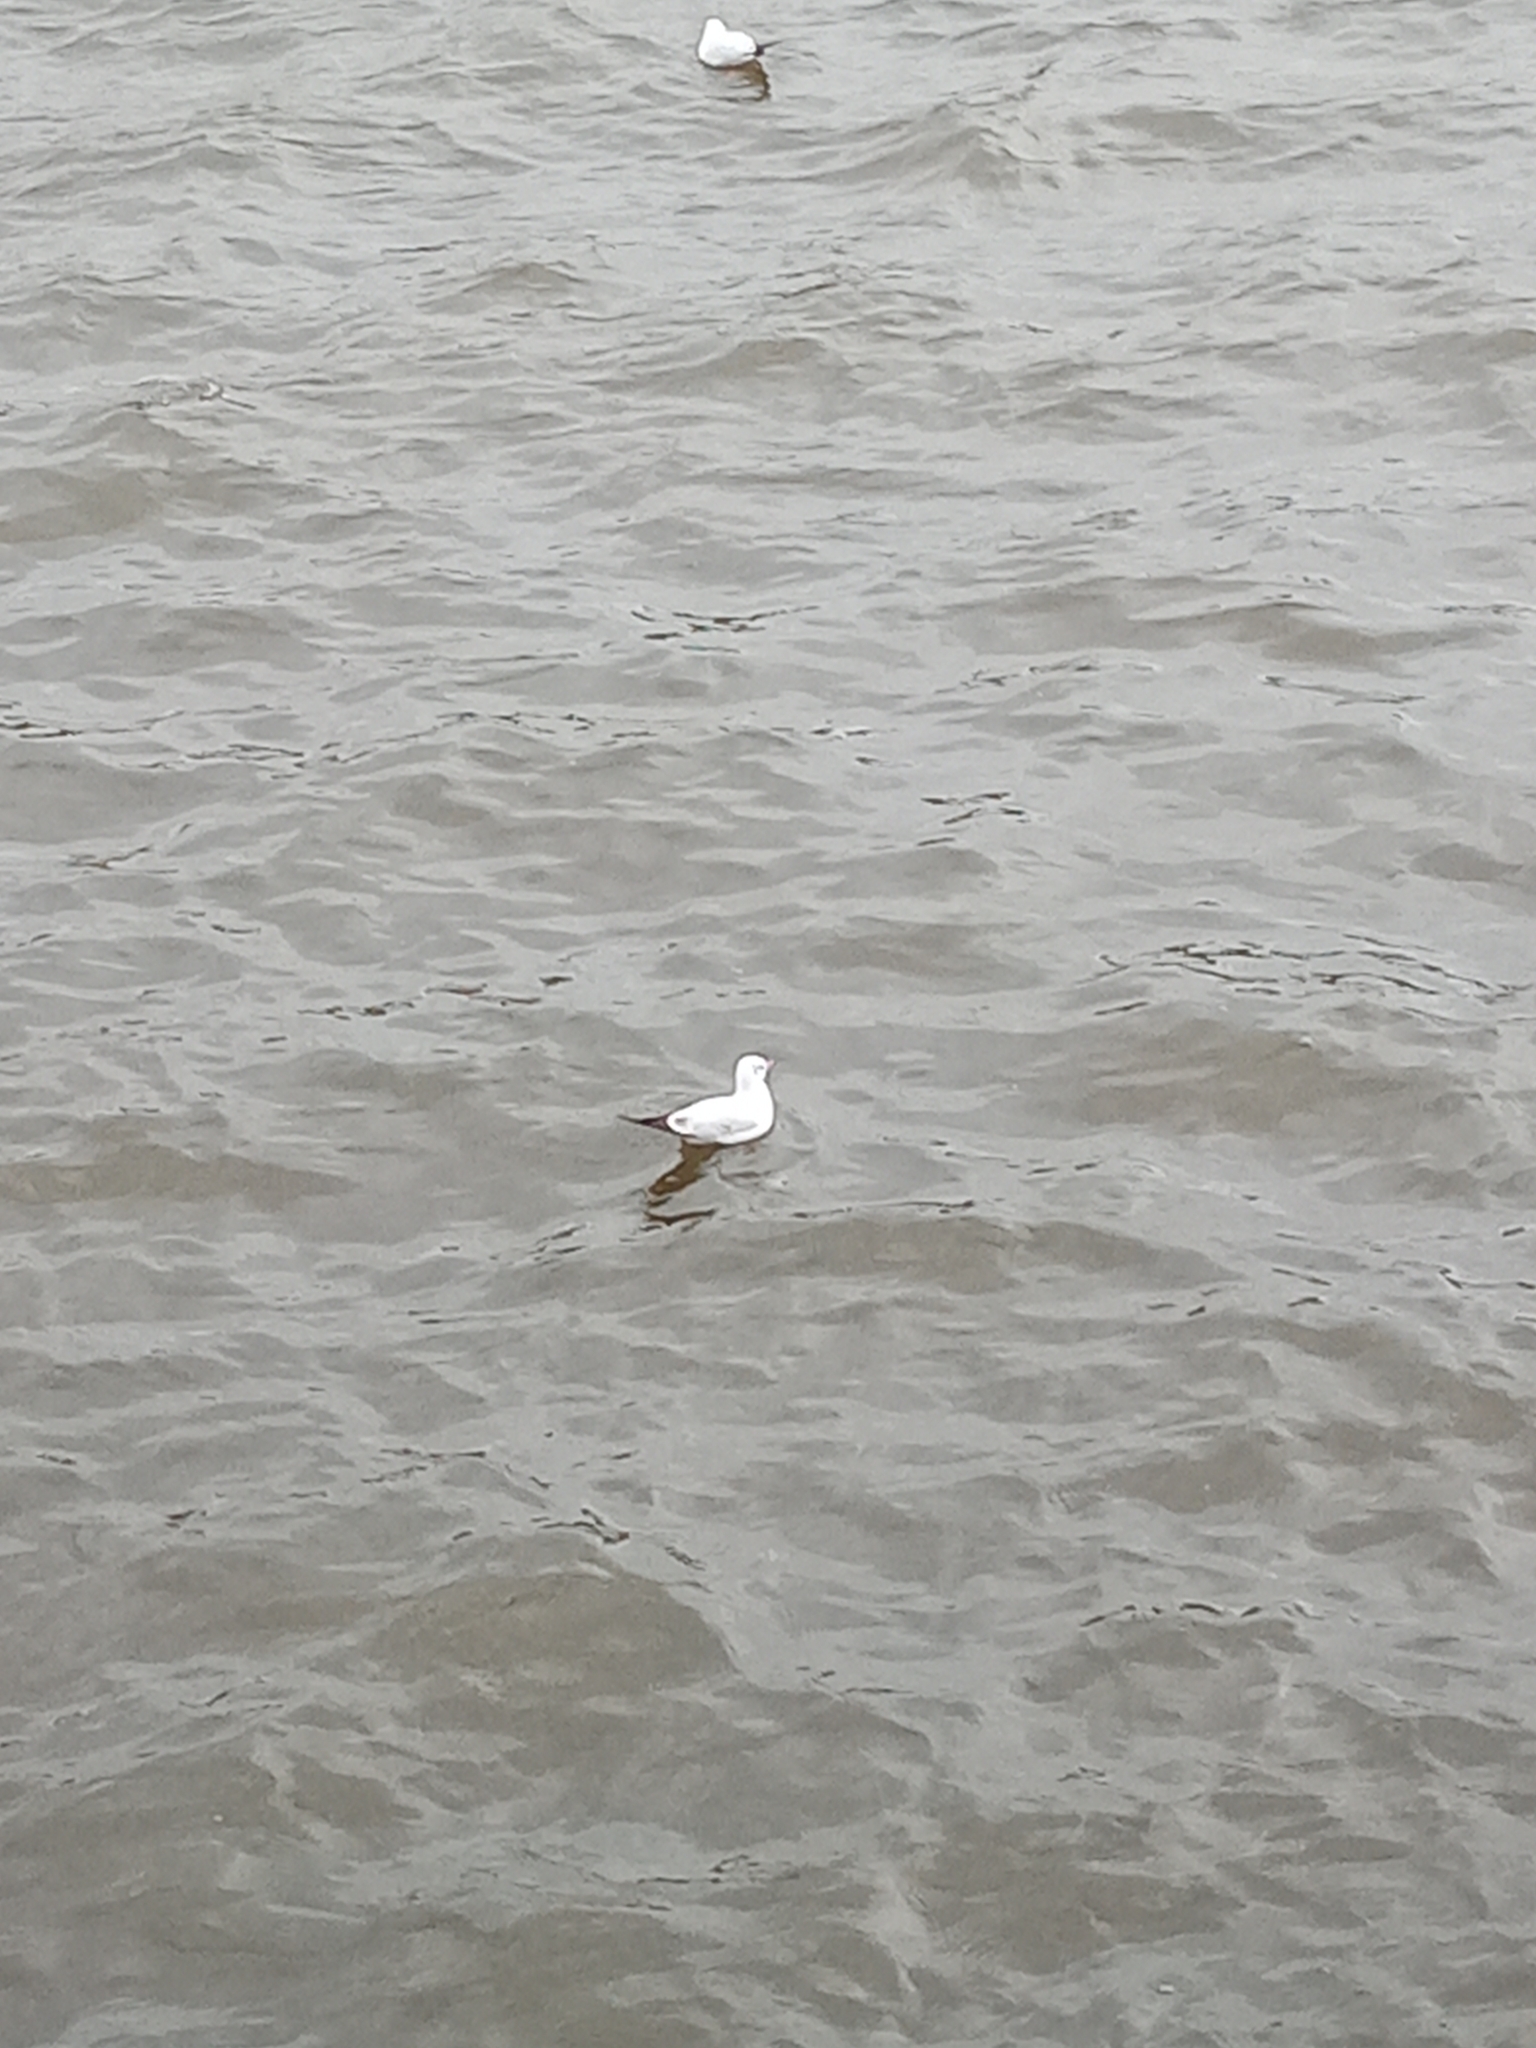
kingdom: Animalia
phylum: Chordata
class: Aves
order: Charadriiformes
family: Laridae
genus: Chroicocephalus
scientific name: Chroicocephalus ridibundus
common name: Black-headed gull
